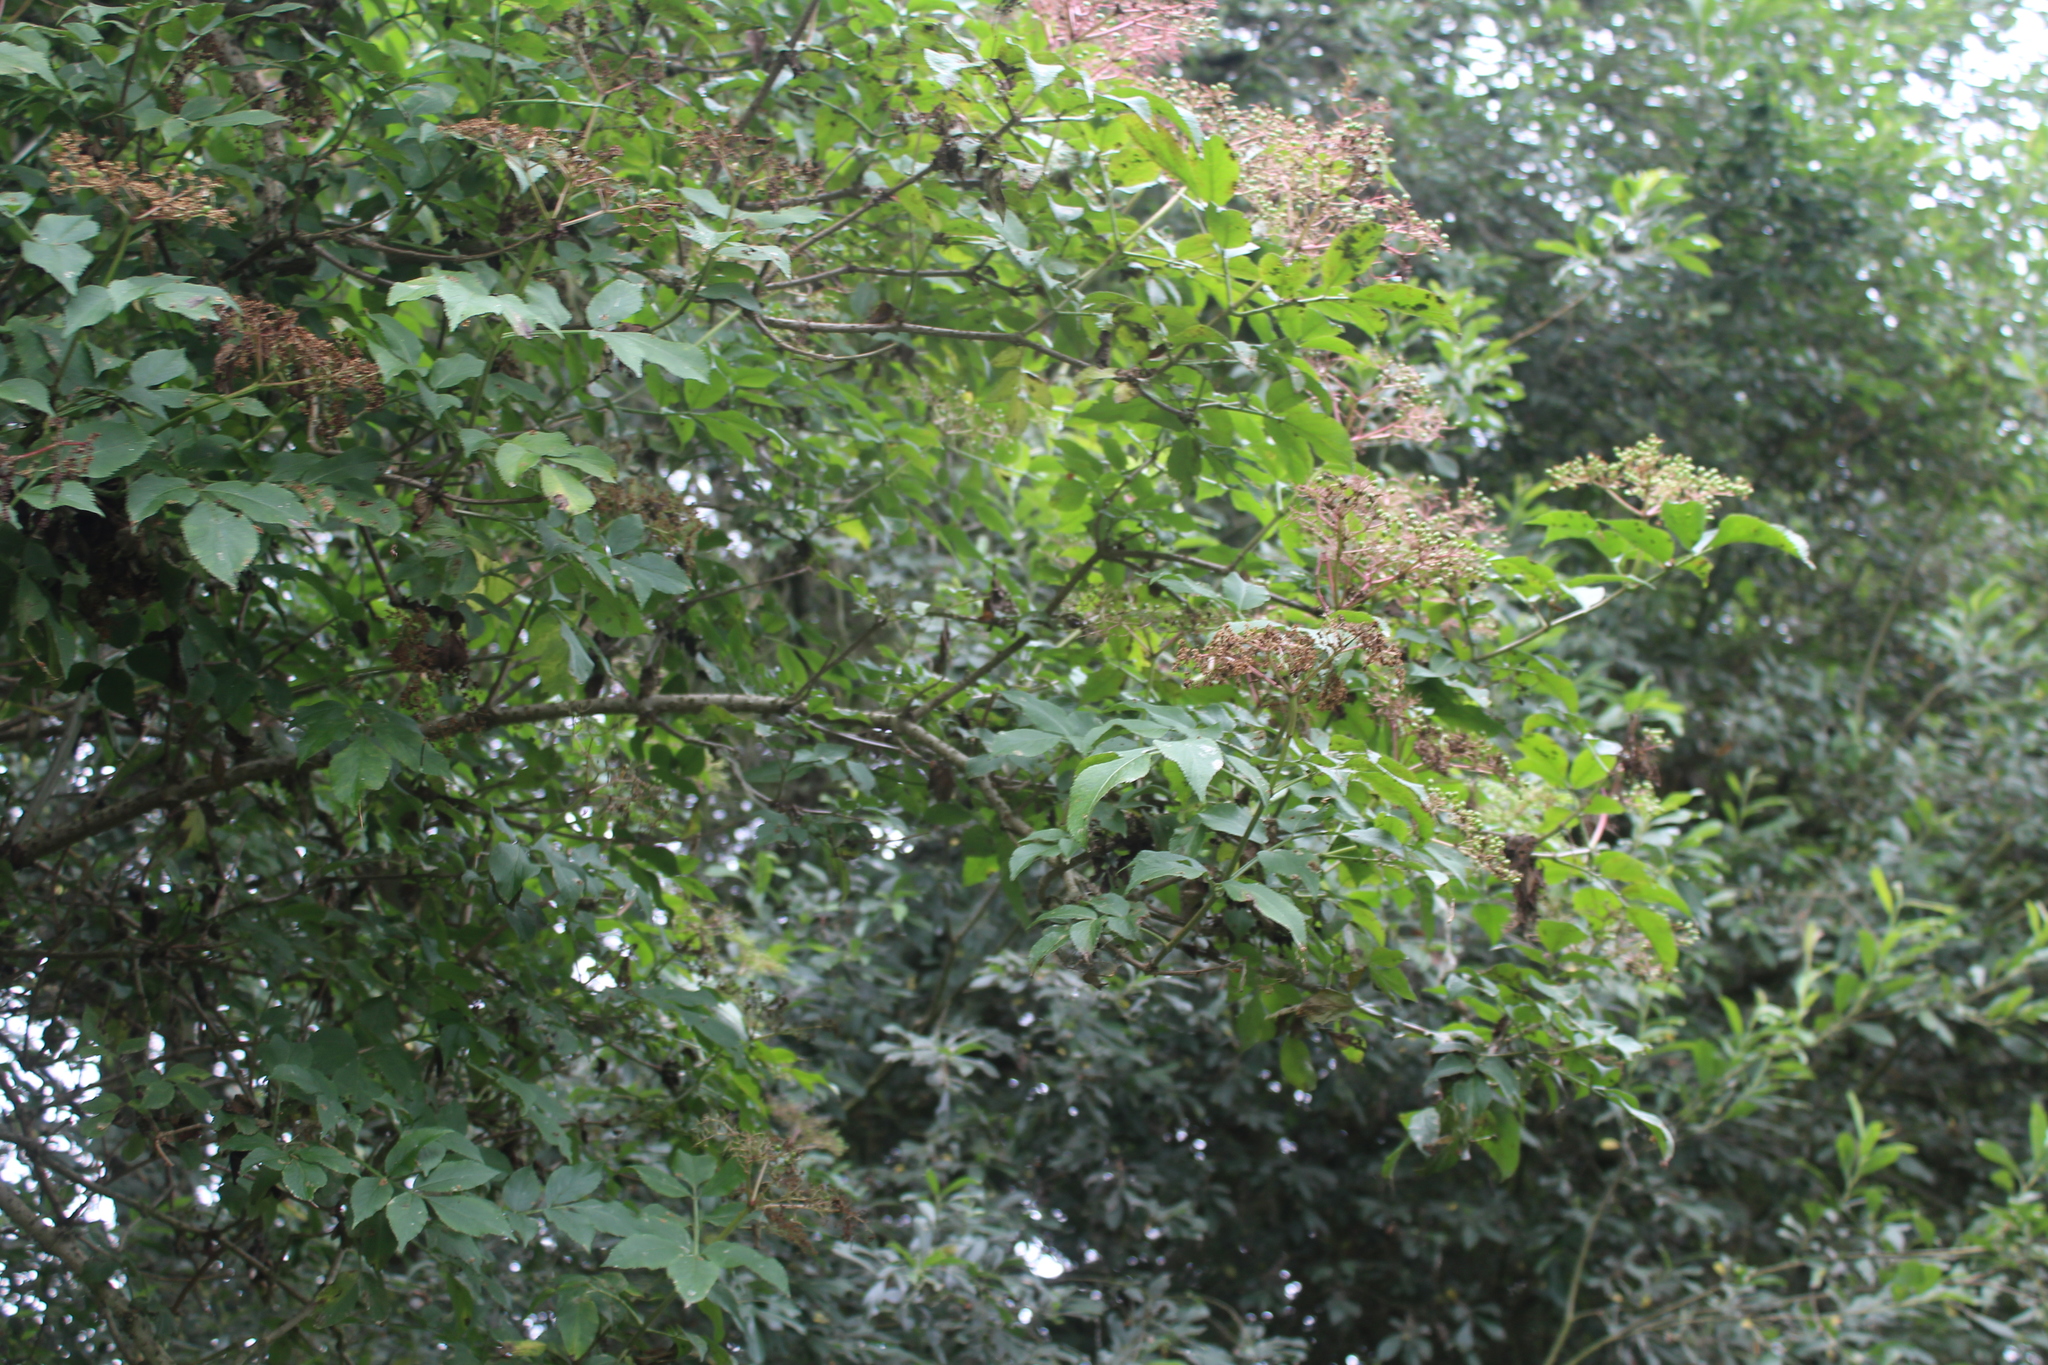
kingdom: Plantae
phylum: Tracheophyta
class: Magnoliopsida
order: Dipsacales
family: Viburnaceae
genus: Sambucus
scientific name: Sambucus nigra
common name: Elder
